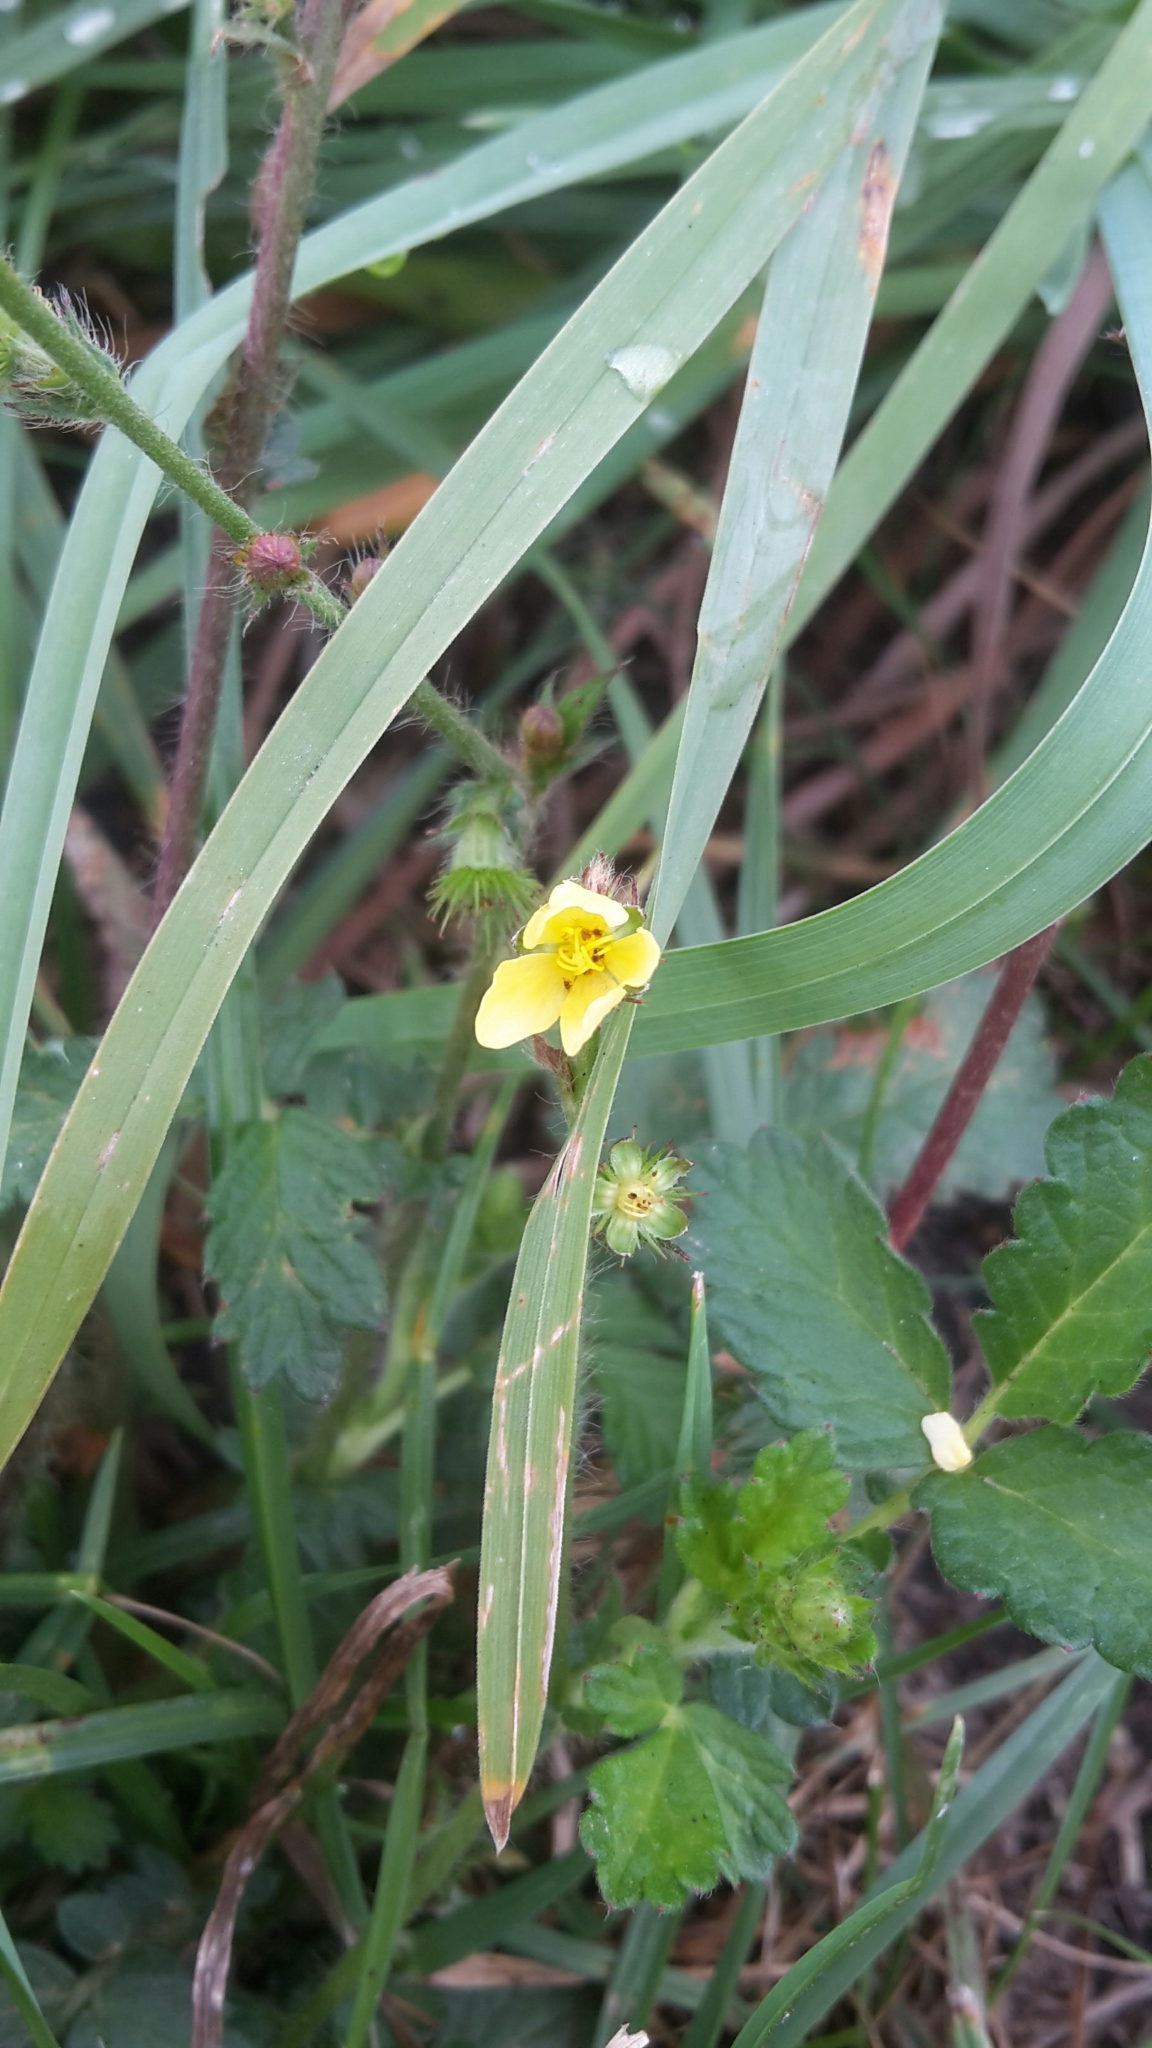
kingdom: Plantae
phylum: Tracheophyta
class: Magnoliopsida
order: Rosales
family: Rosaceae
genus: Agrimonia
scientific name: Agrimonia eupatoria
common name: Agrimony
